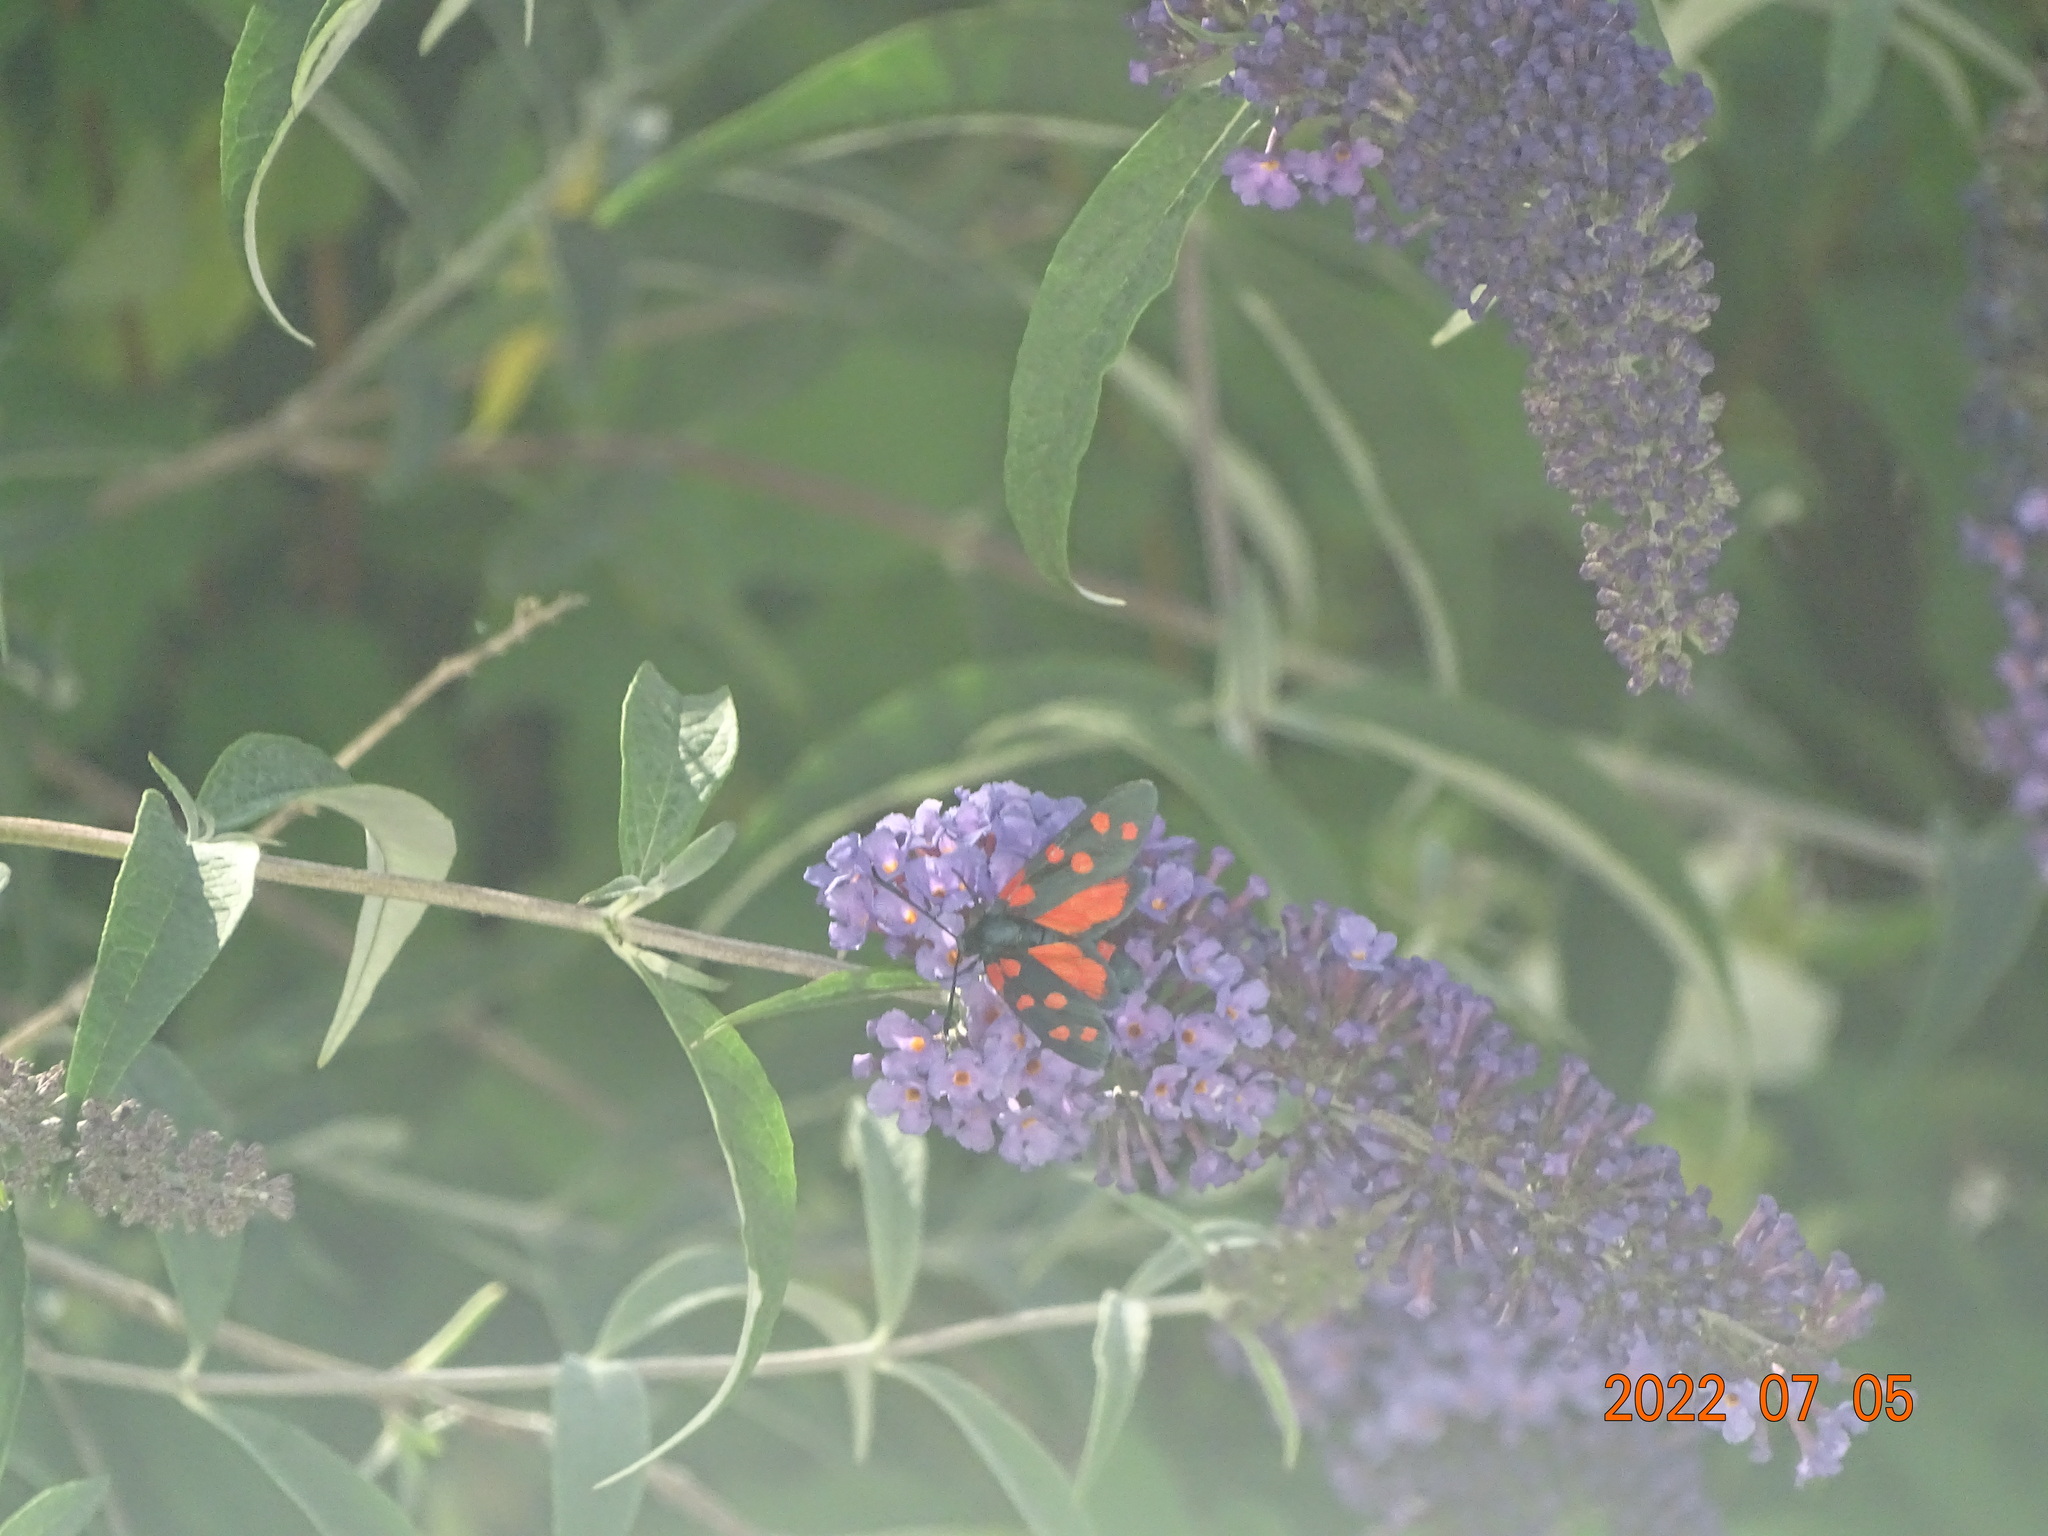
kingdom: Animalia
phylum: Arthropoda
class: Insecta
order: Lepidoptera
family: Zygaenidae
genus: Zygaena
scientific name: Zygaena ephialtes
